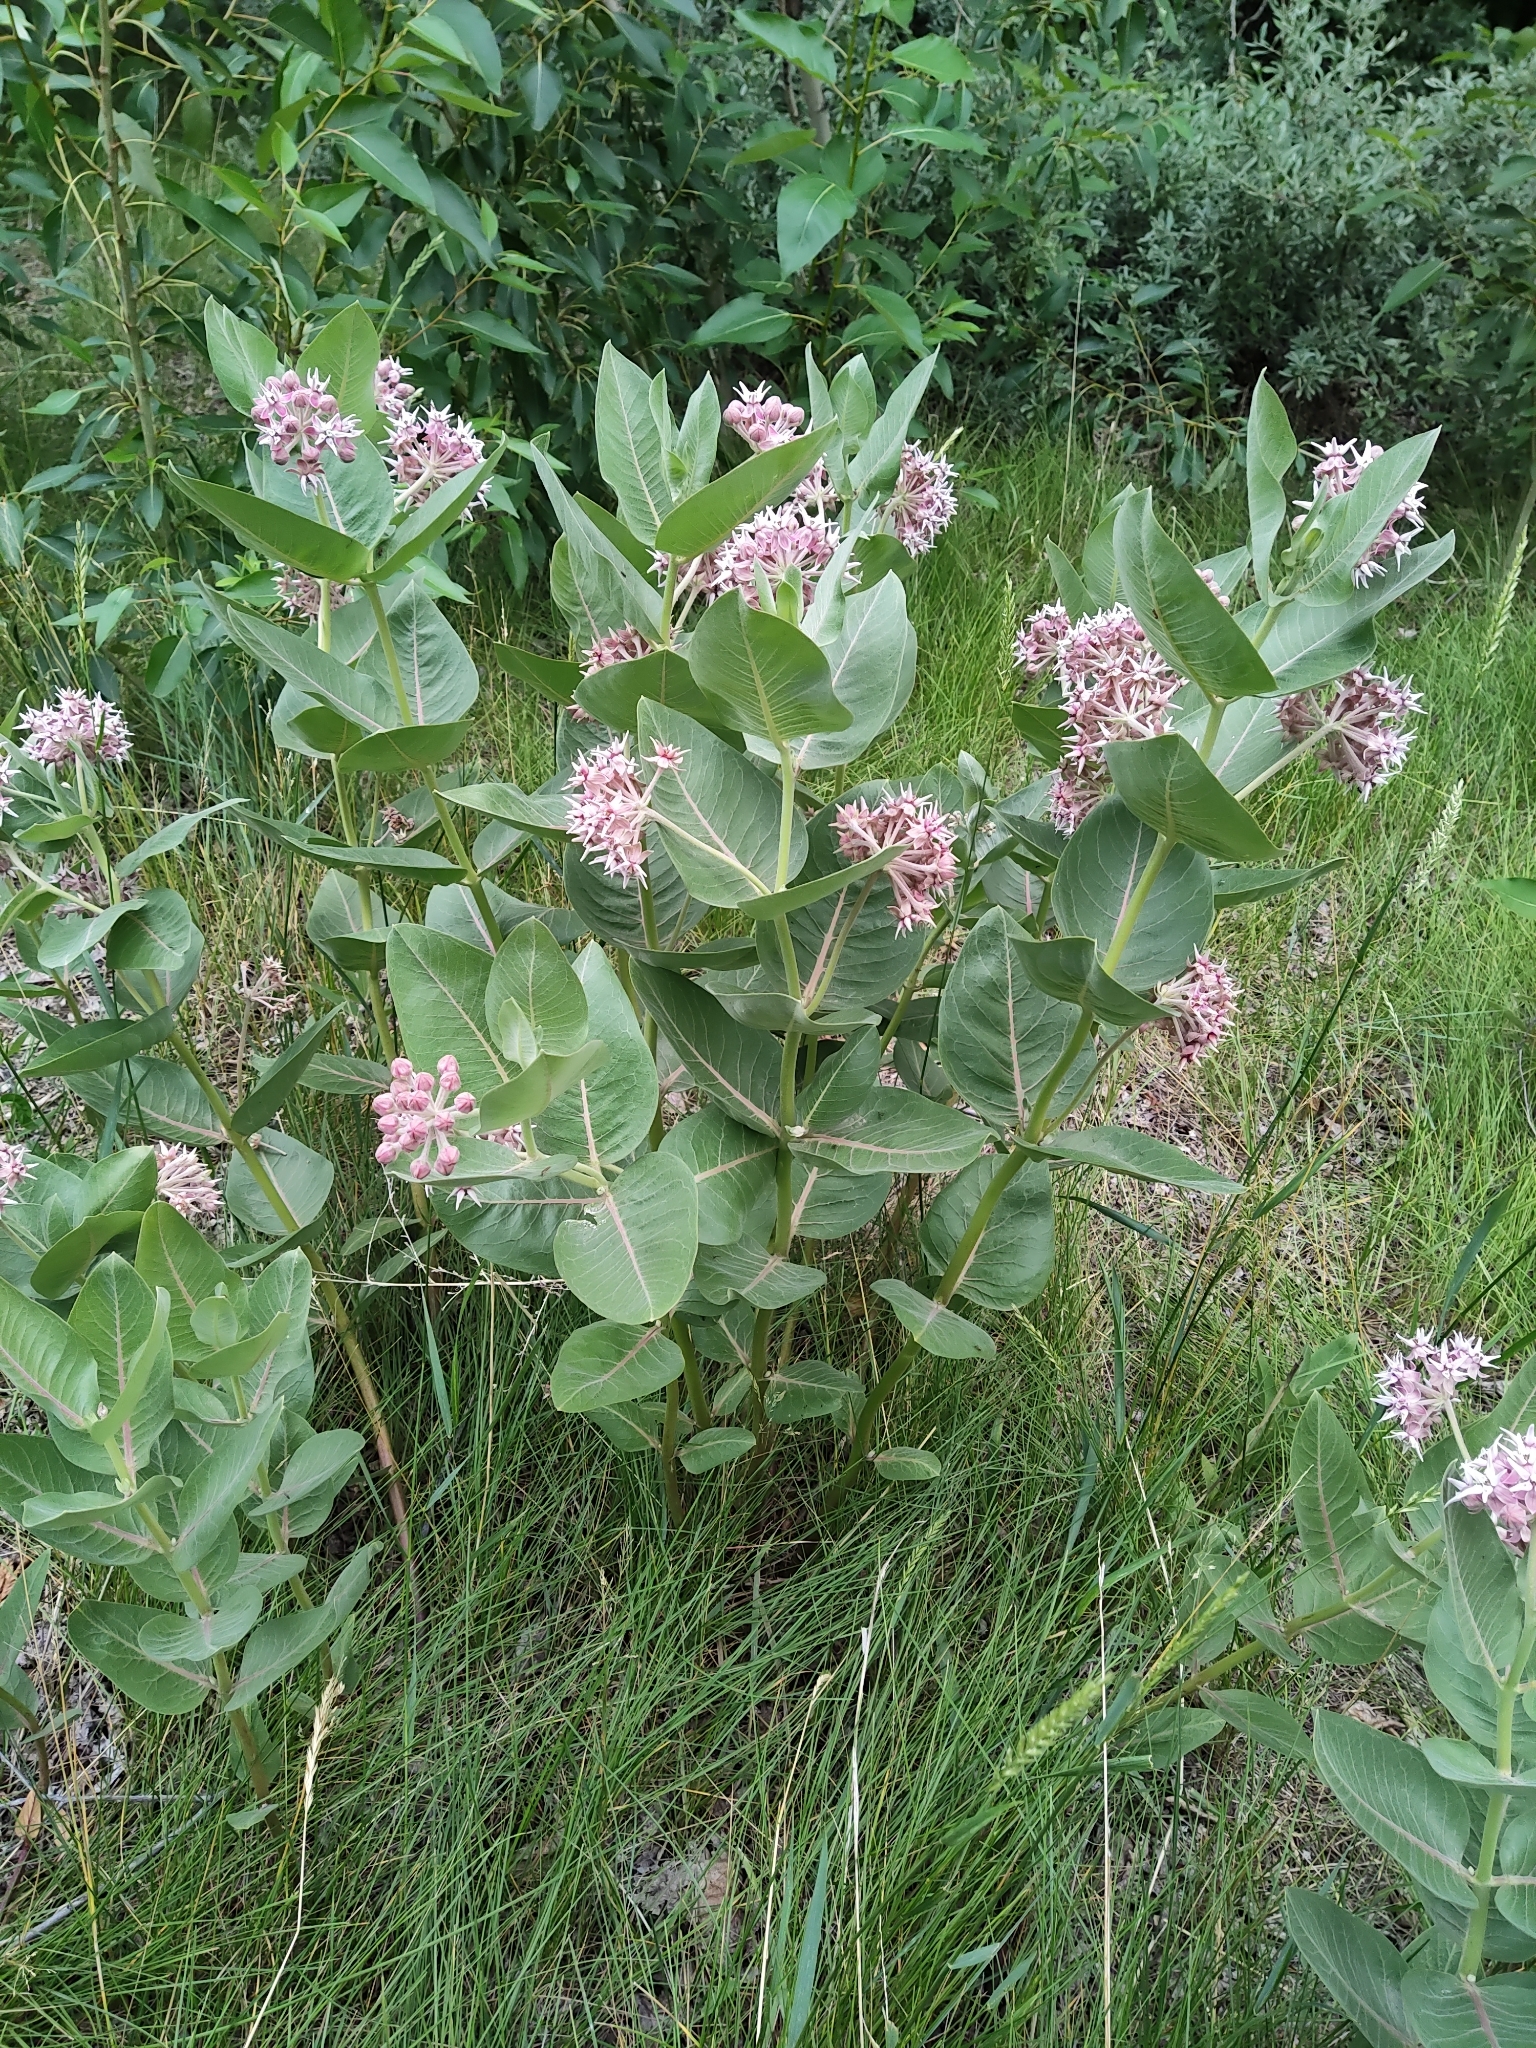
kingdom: Plantae
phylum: Tracheophyta
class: Magnoliopsida
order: Gentianales
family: Apocynaceae
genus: Asclepias
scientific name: Asclepias speciosa
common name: Showy milkweed
